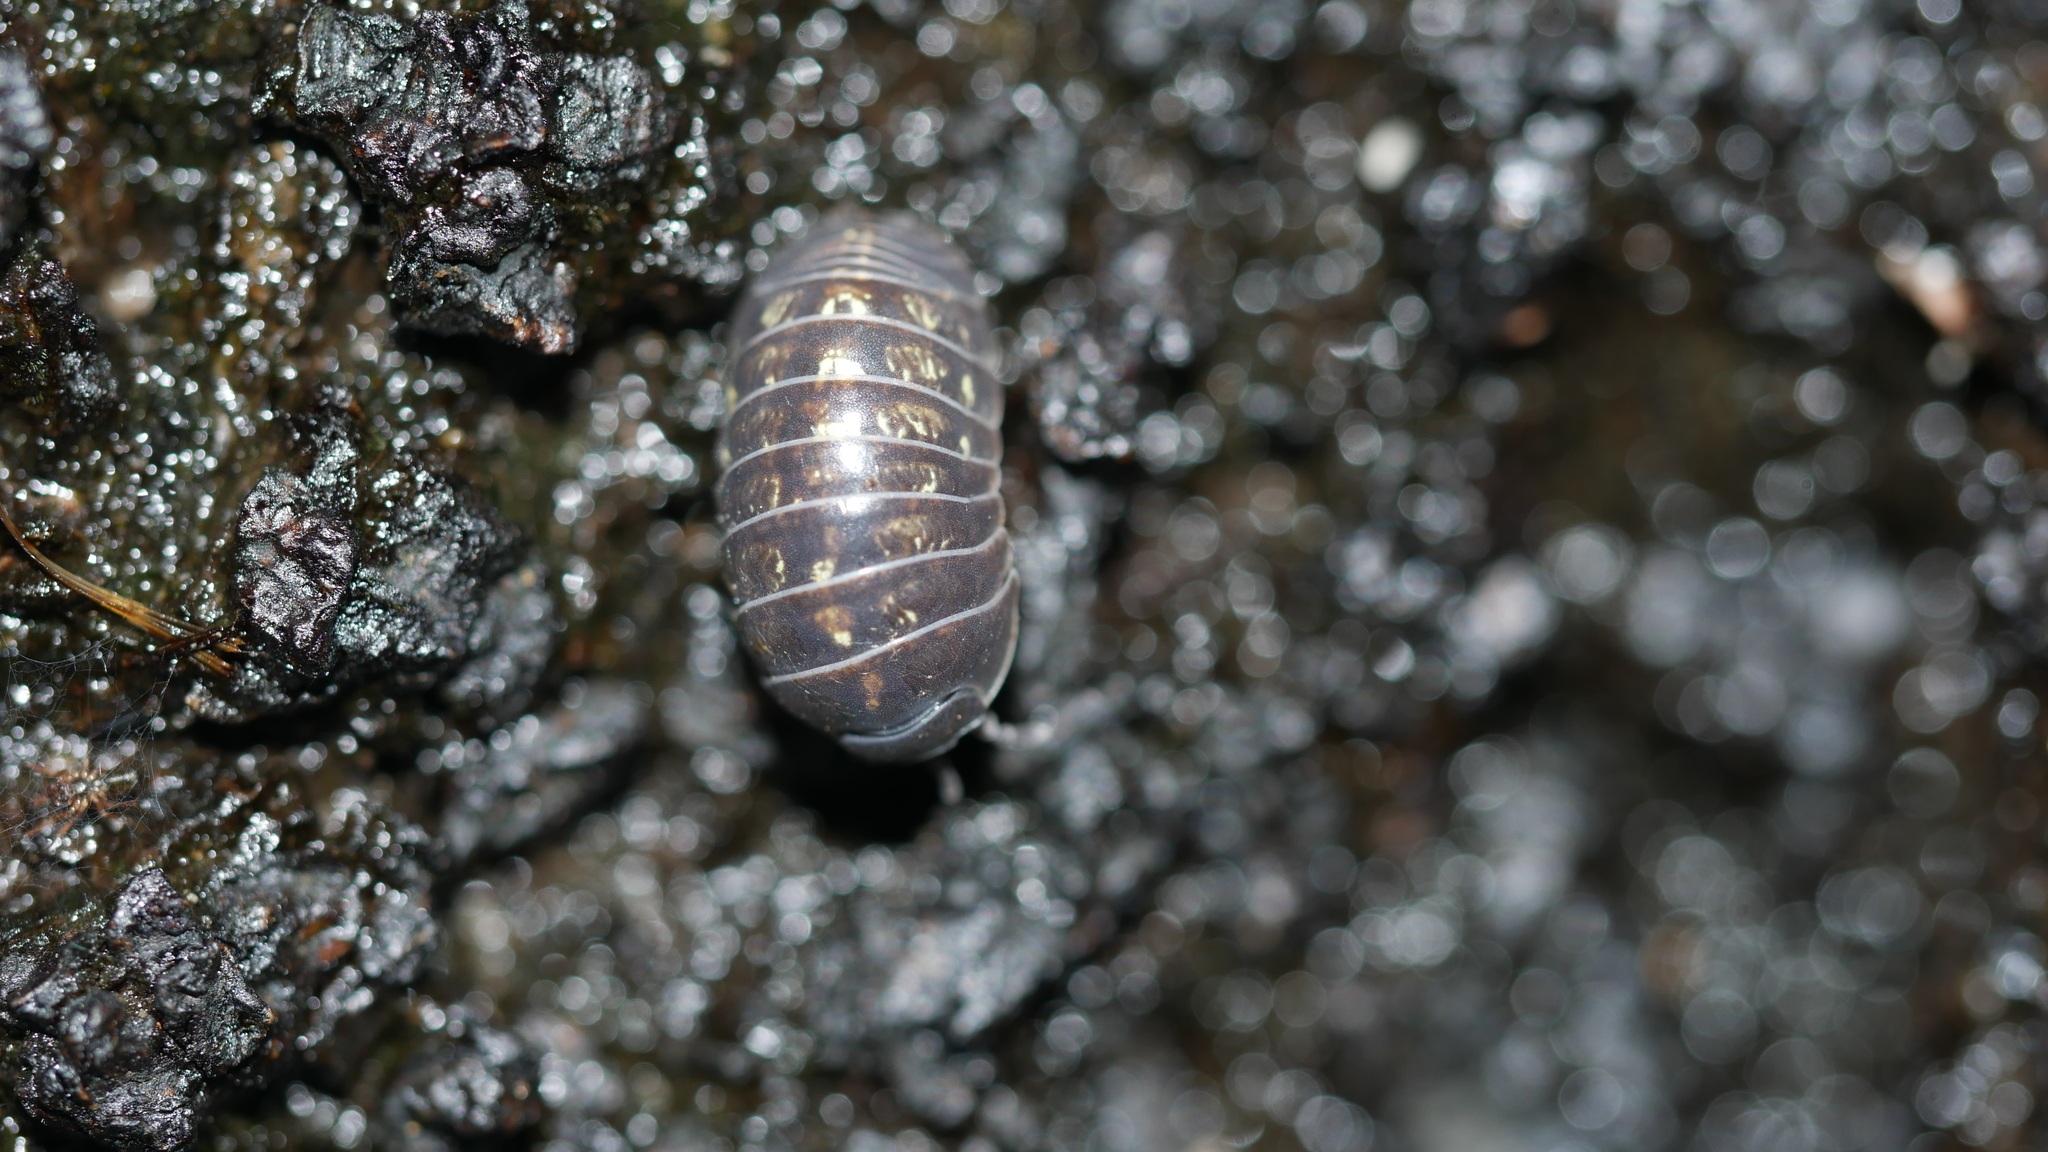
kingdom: Animalia
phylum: Arthropoda
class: Malacostraca
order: Isopoda
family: Armadillidiidae
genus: Armadillidium
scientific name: Armadillidium vulgare
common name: Common pill woodlouse
